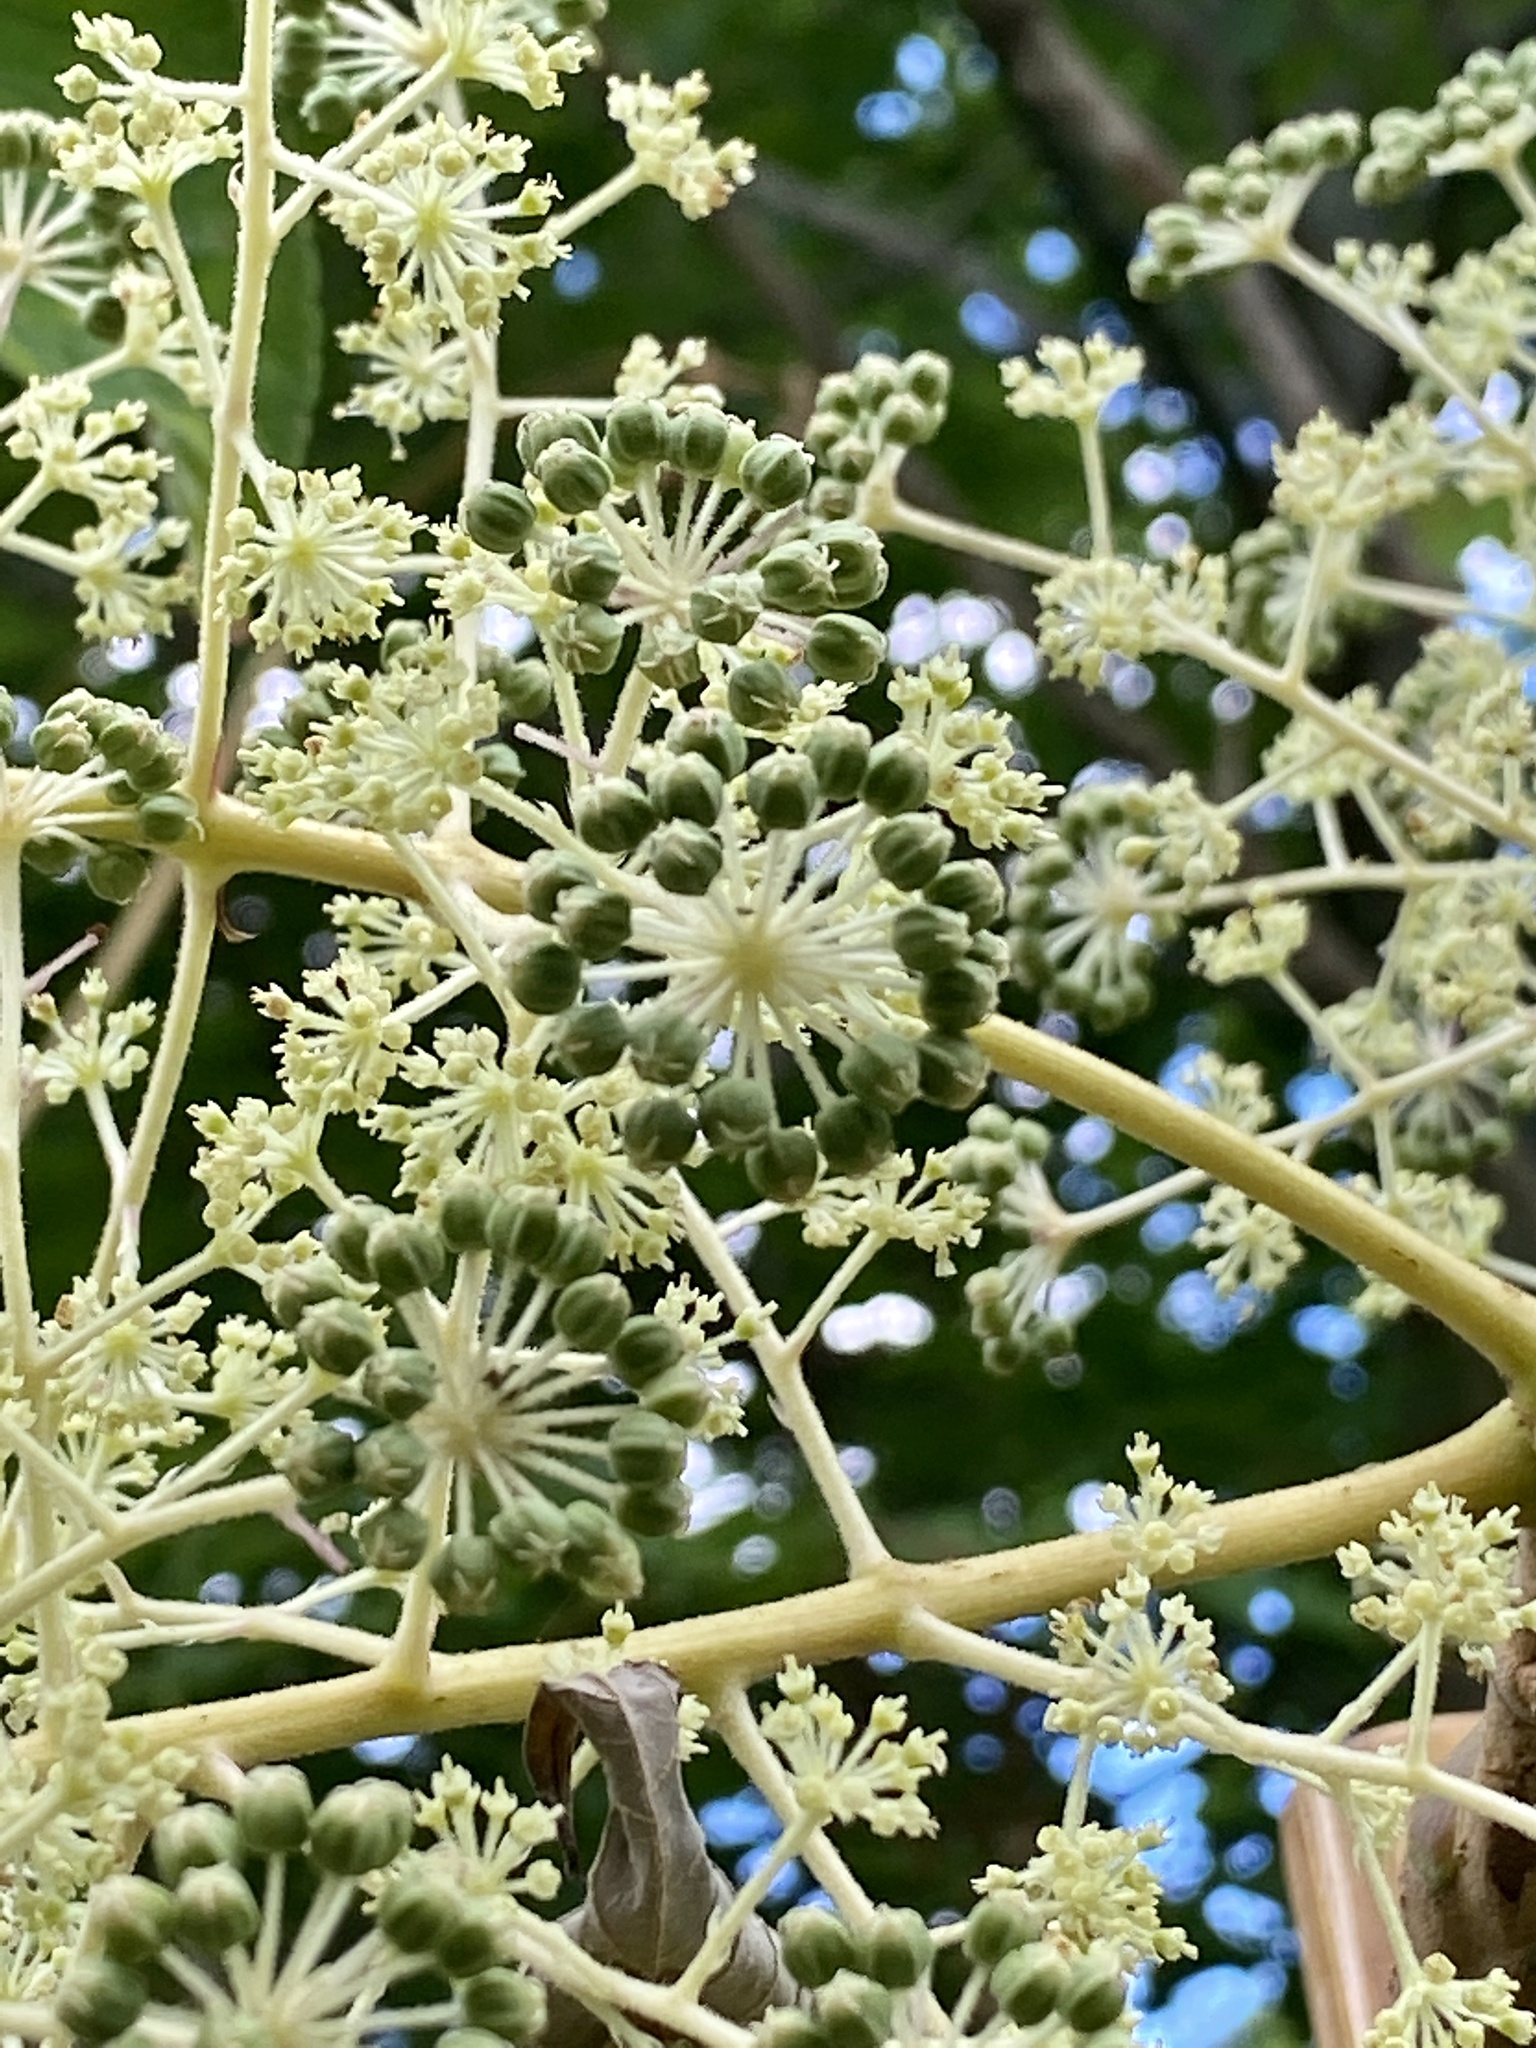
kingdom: Plantae
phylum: Tracheophyta
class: Magnoliopsida
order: Apiales
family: Araliaceae
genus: Aralia
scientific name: Aralia elata
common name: Japanese angelica-tree
